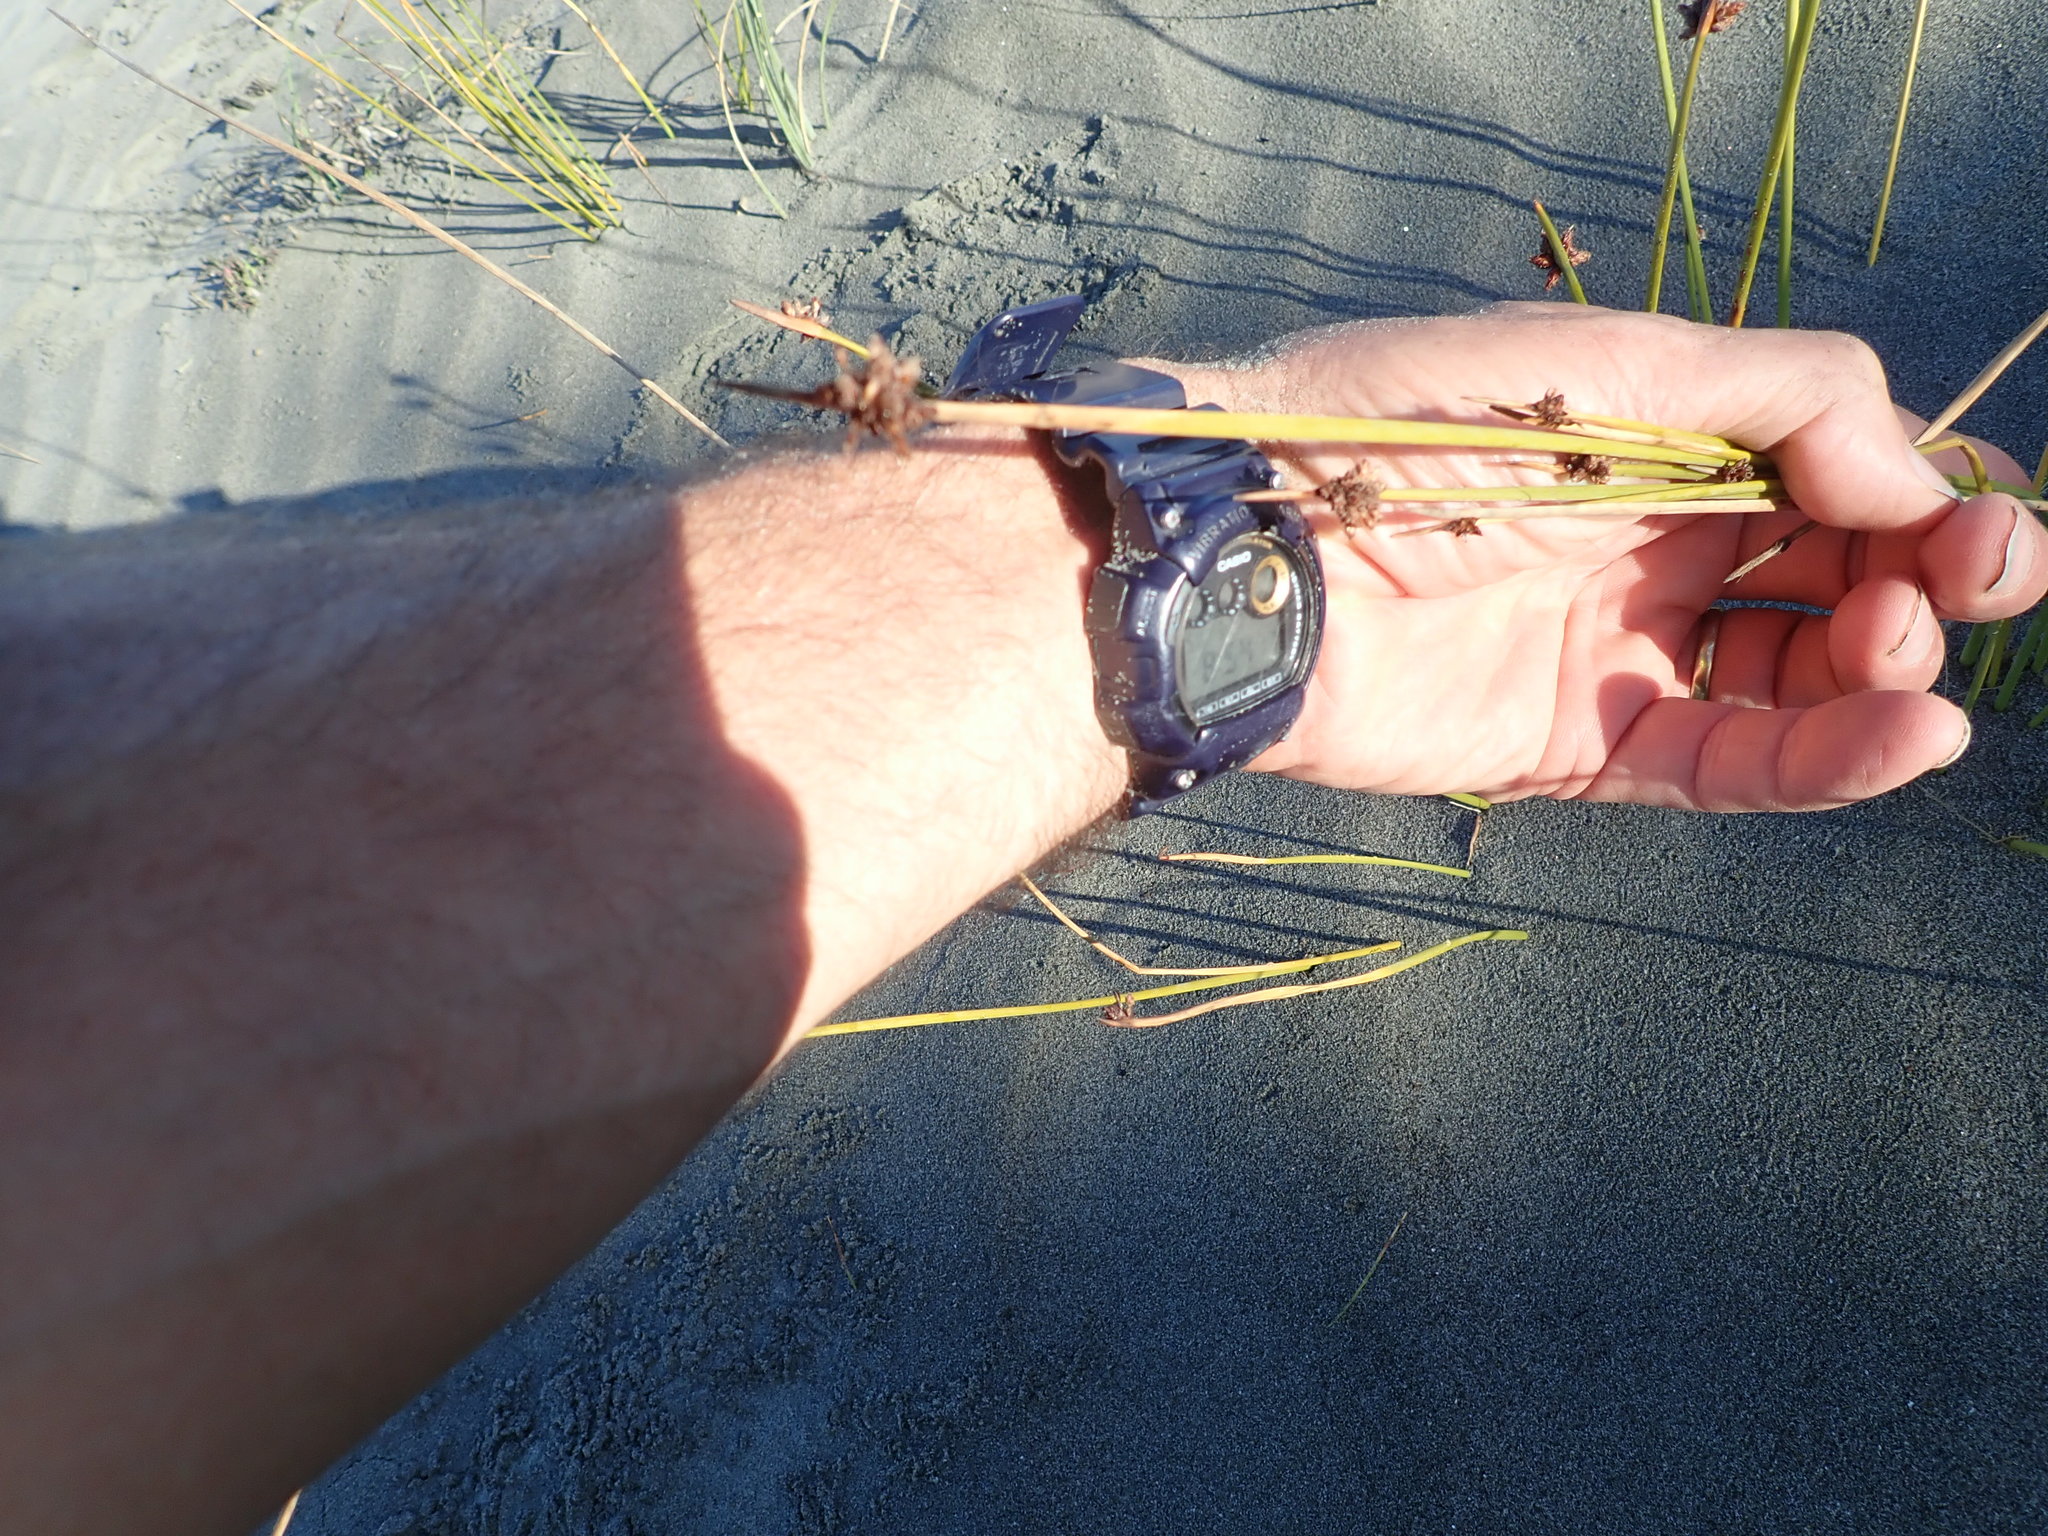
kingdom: Plantae
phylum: Tracheophyta
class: Liliopsida
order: Poales
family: Cyperaceae
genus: Ficinia
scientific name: Ficinia nodosa
